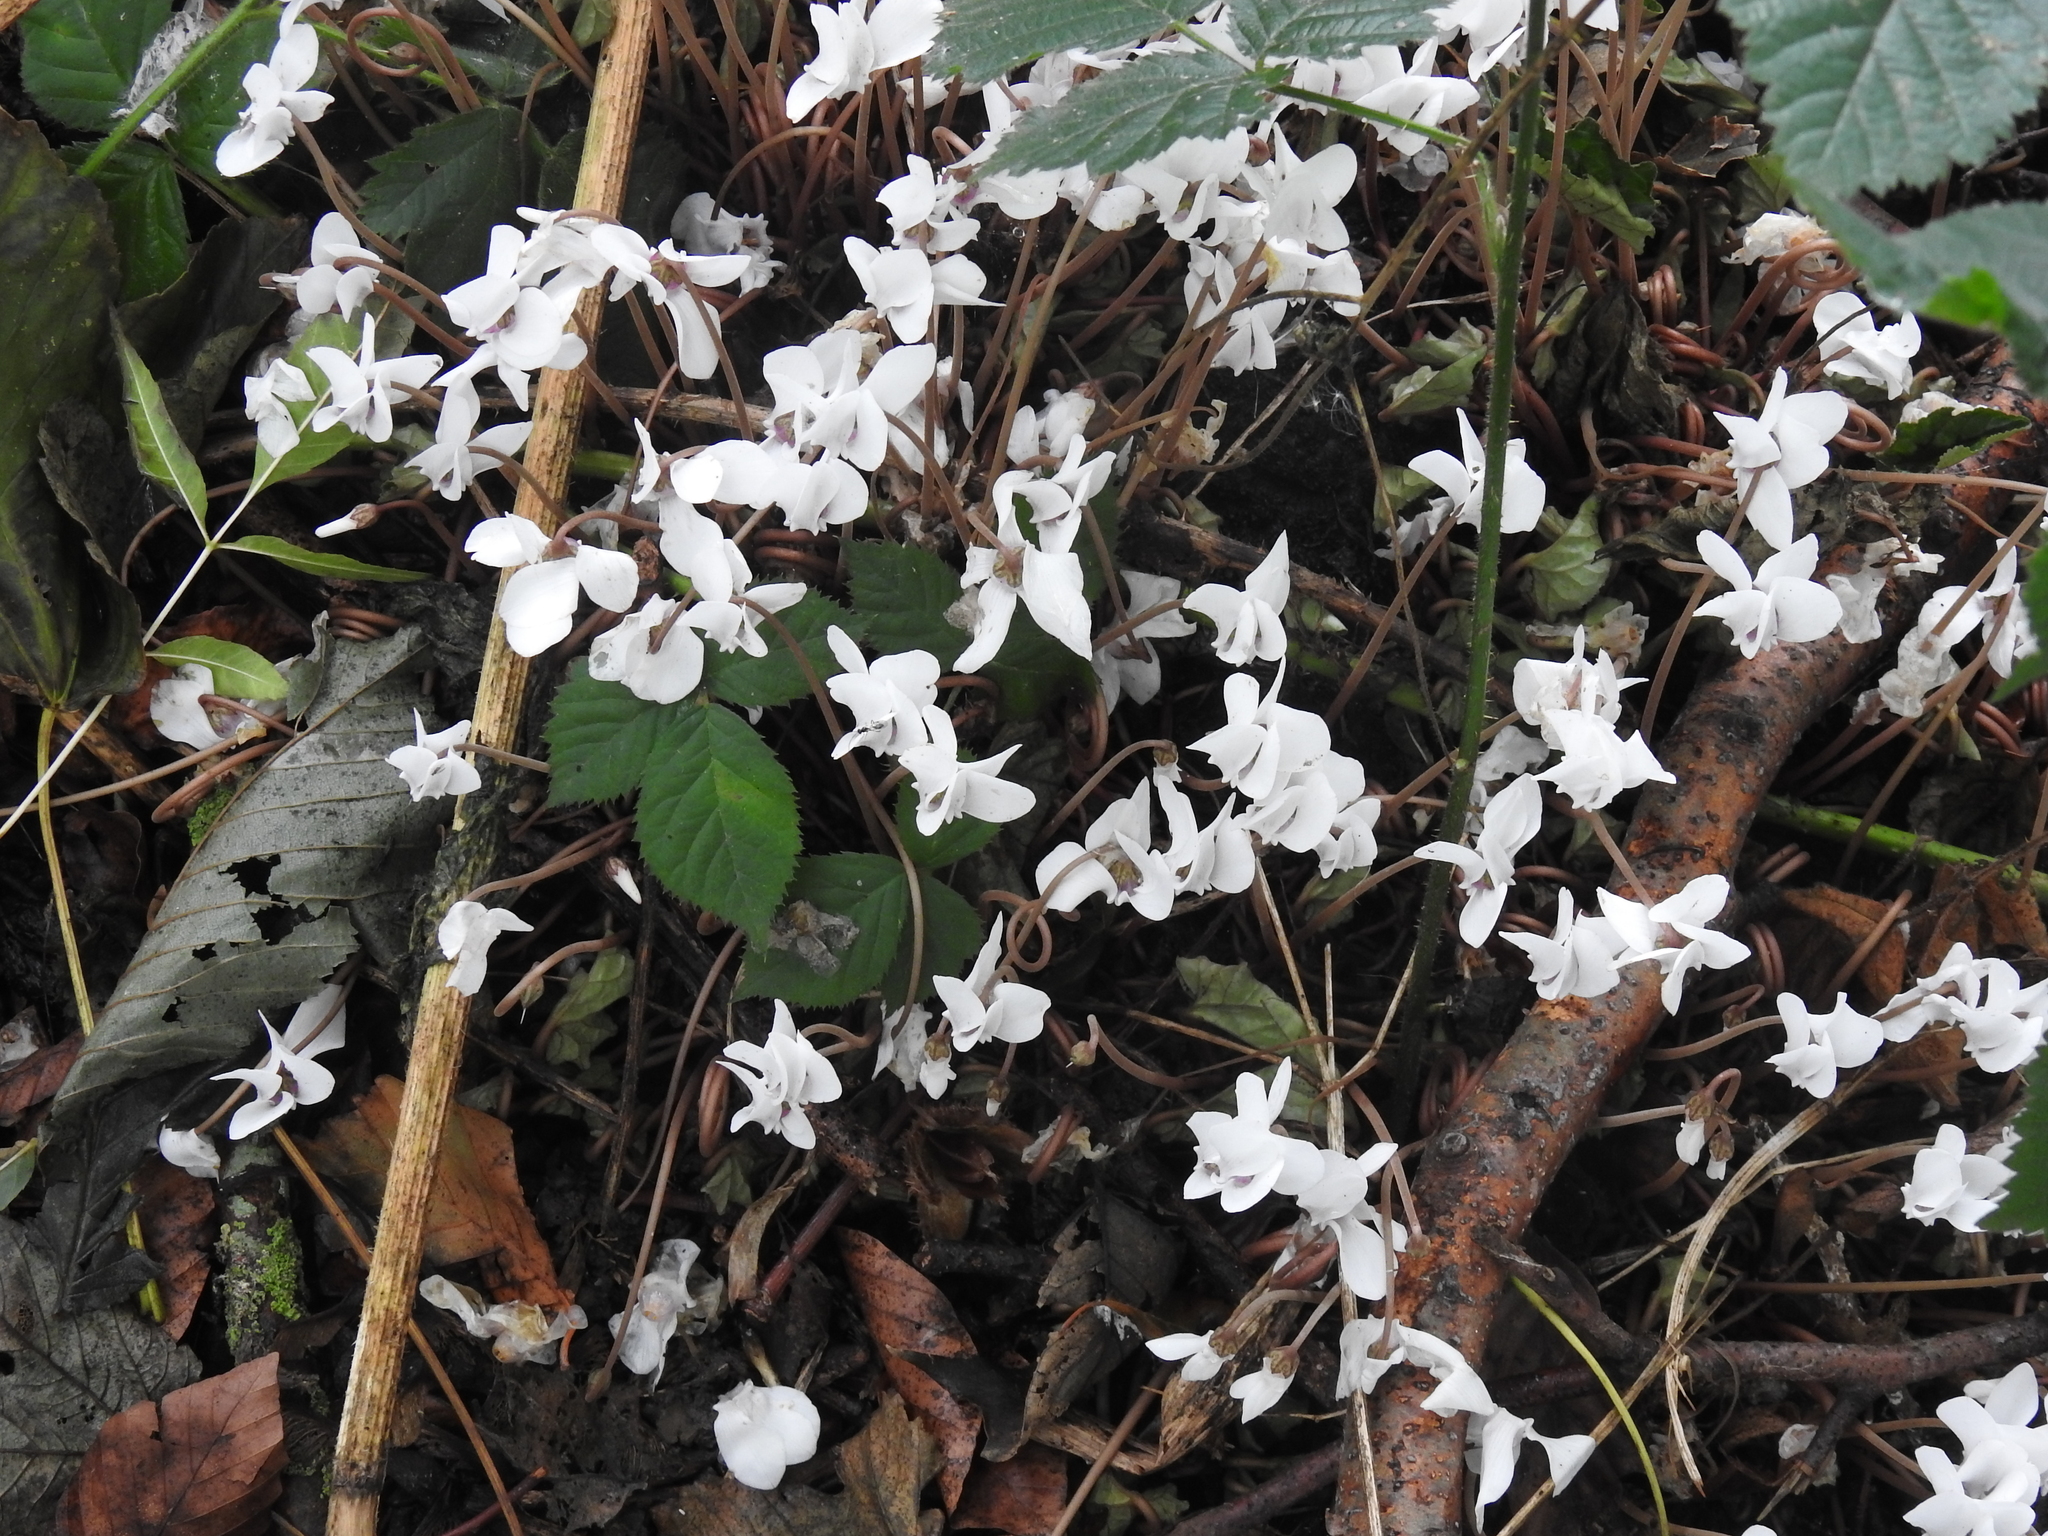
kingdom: Plantae
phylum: Tracheophyta
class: Magnoliopsida
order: Ericales
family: Primulaceae
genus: Cyclamen
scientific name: Cyclamen hederifolium
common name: Sowbread
